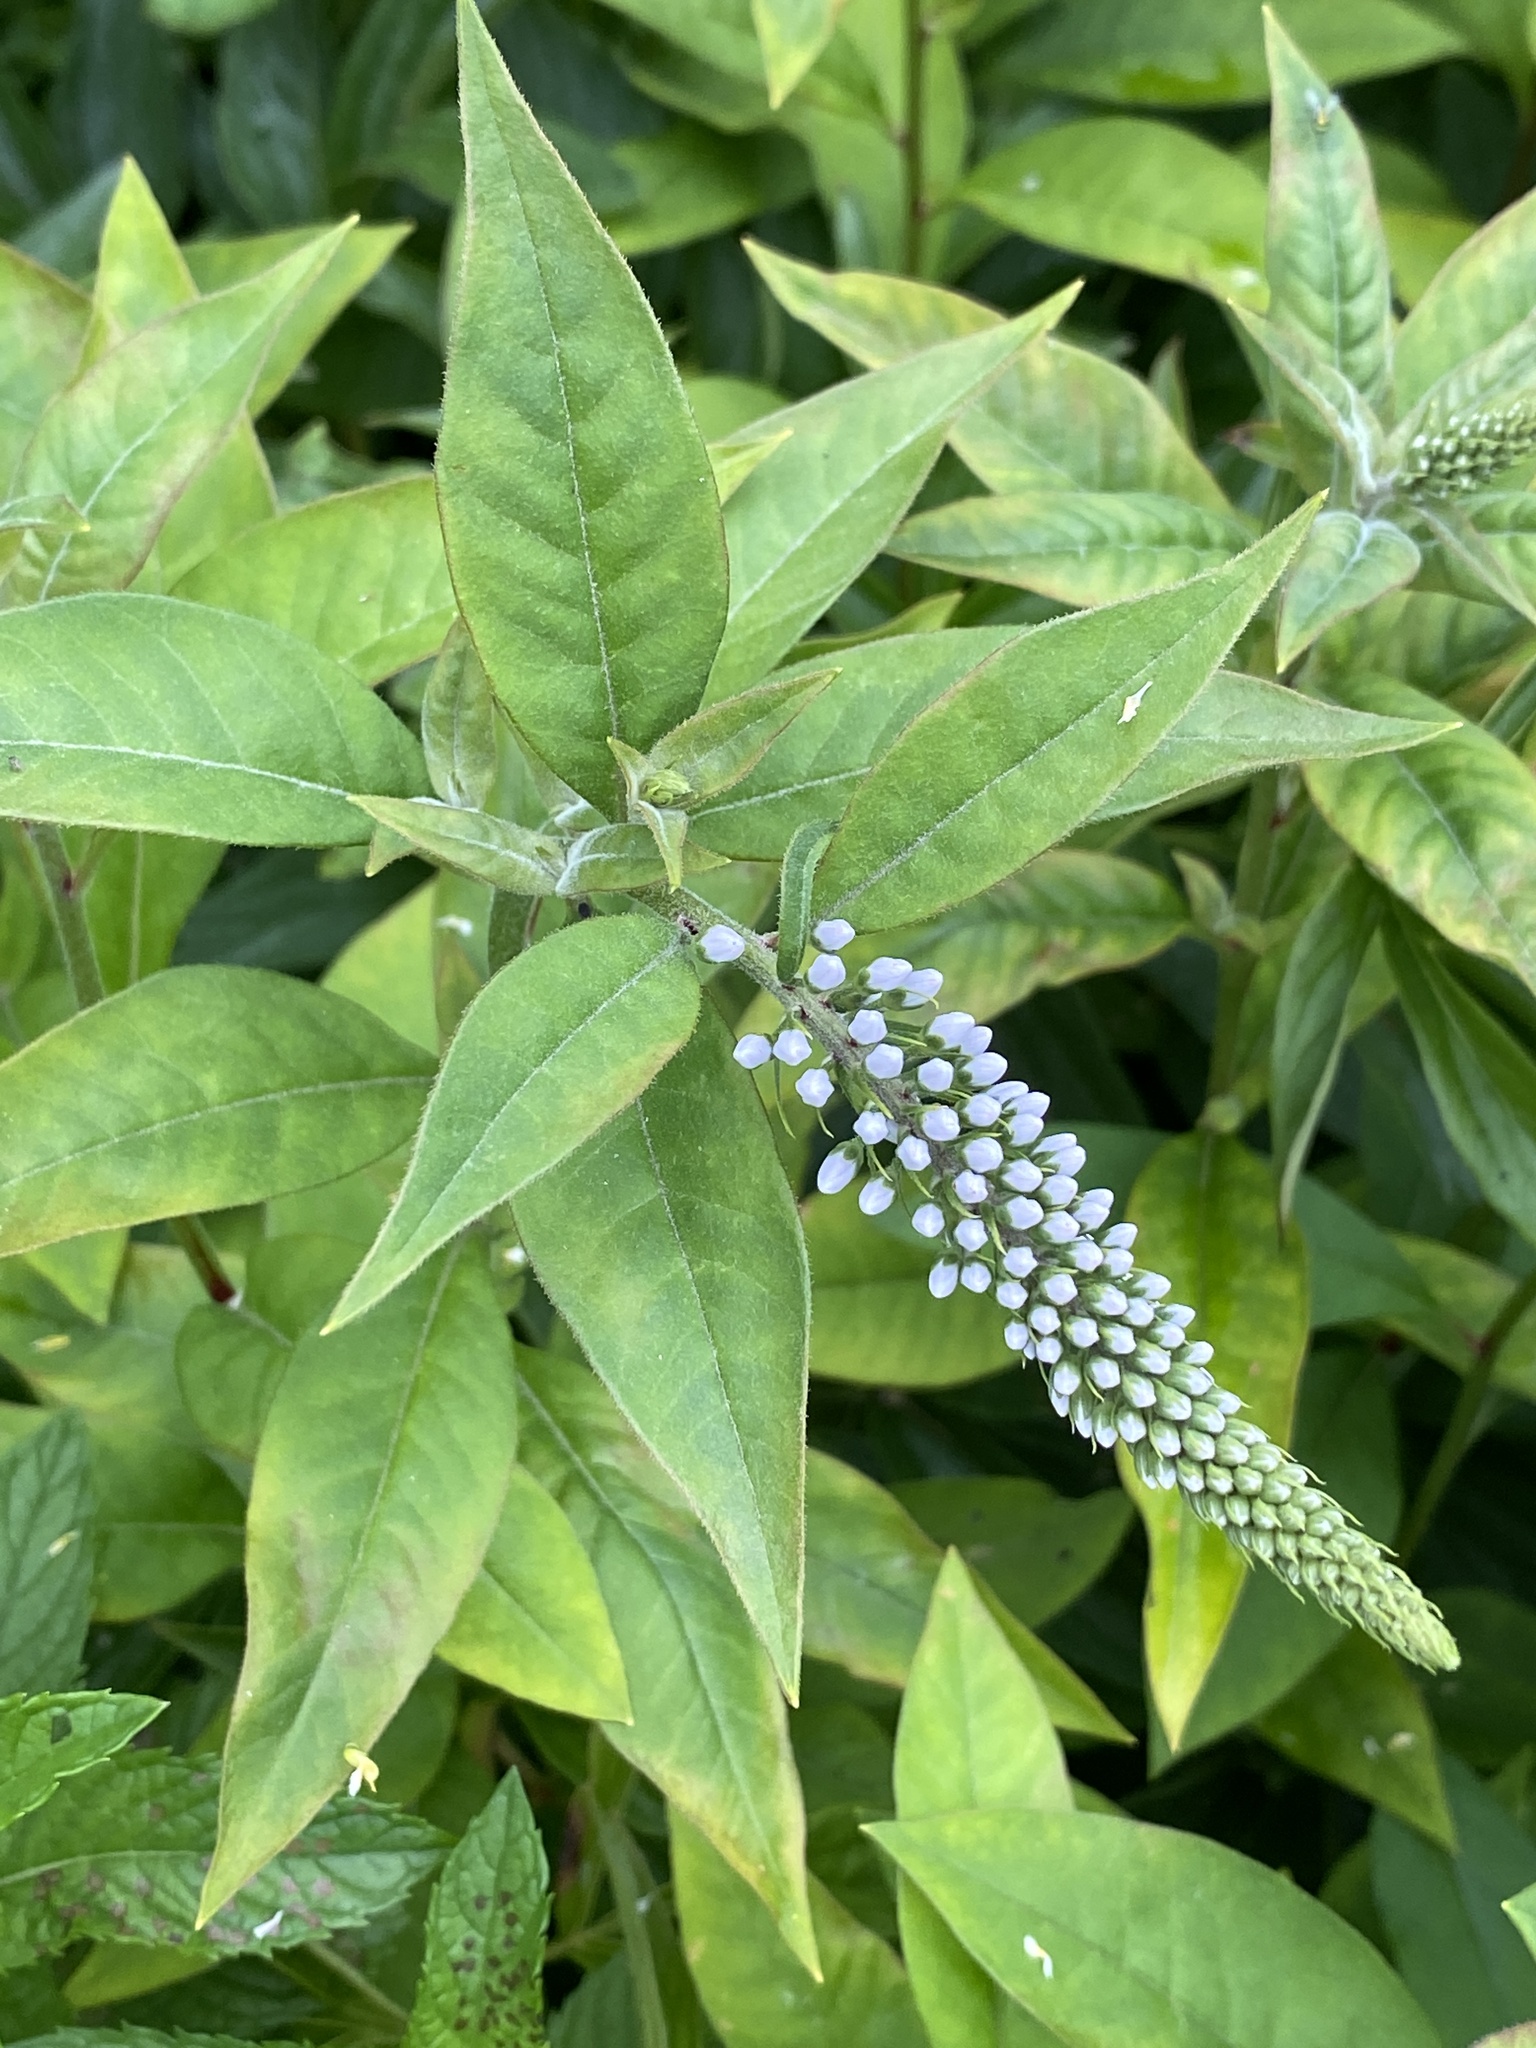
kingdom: Plantae
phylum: Tracheophyta
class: Magnoliopsida
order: Ericales
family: Primulaceae
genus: Lysimachia
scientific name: Lysimachia clethroides
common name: Gooseneck loosestrife
